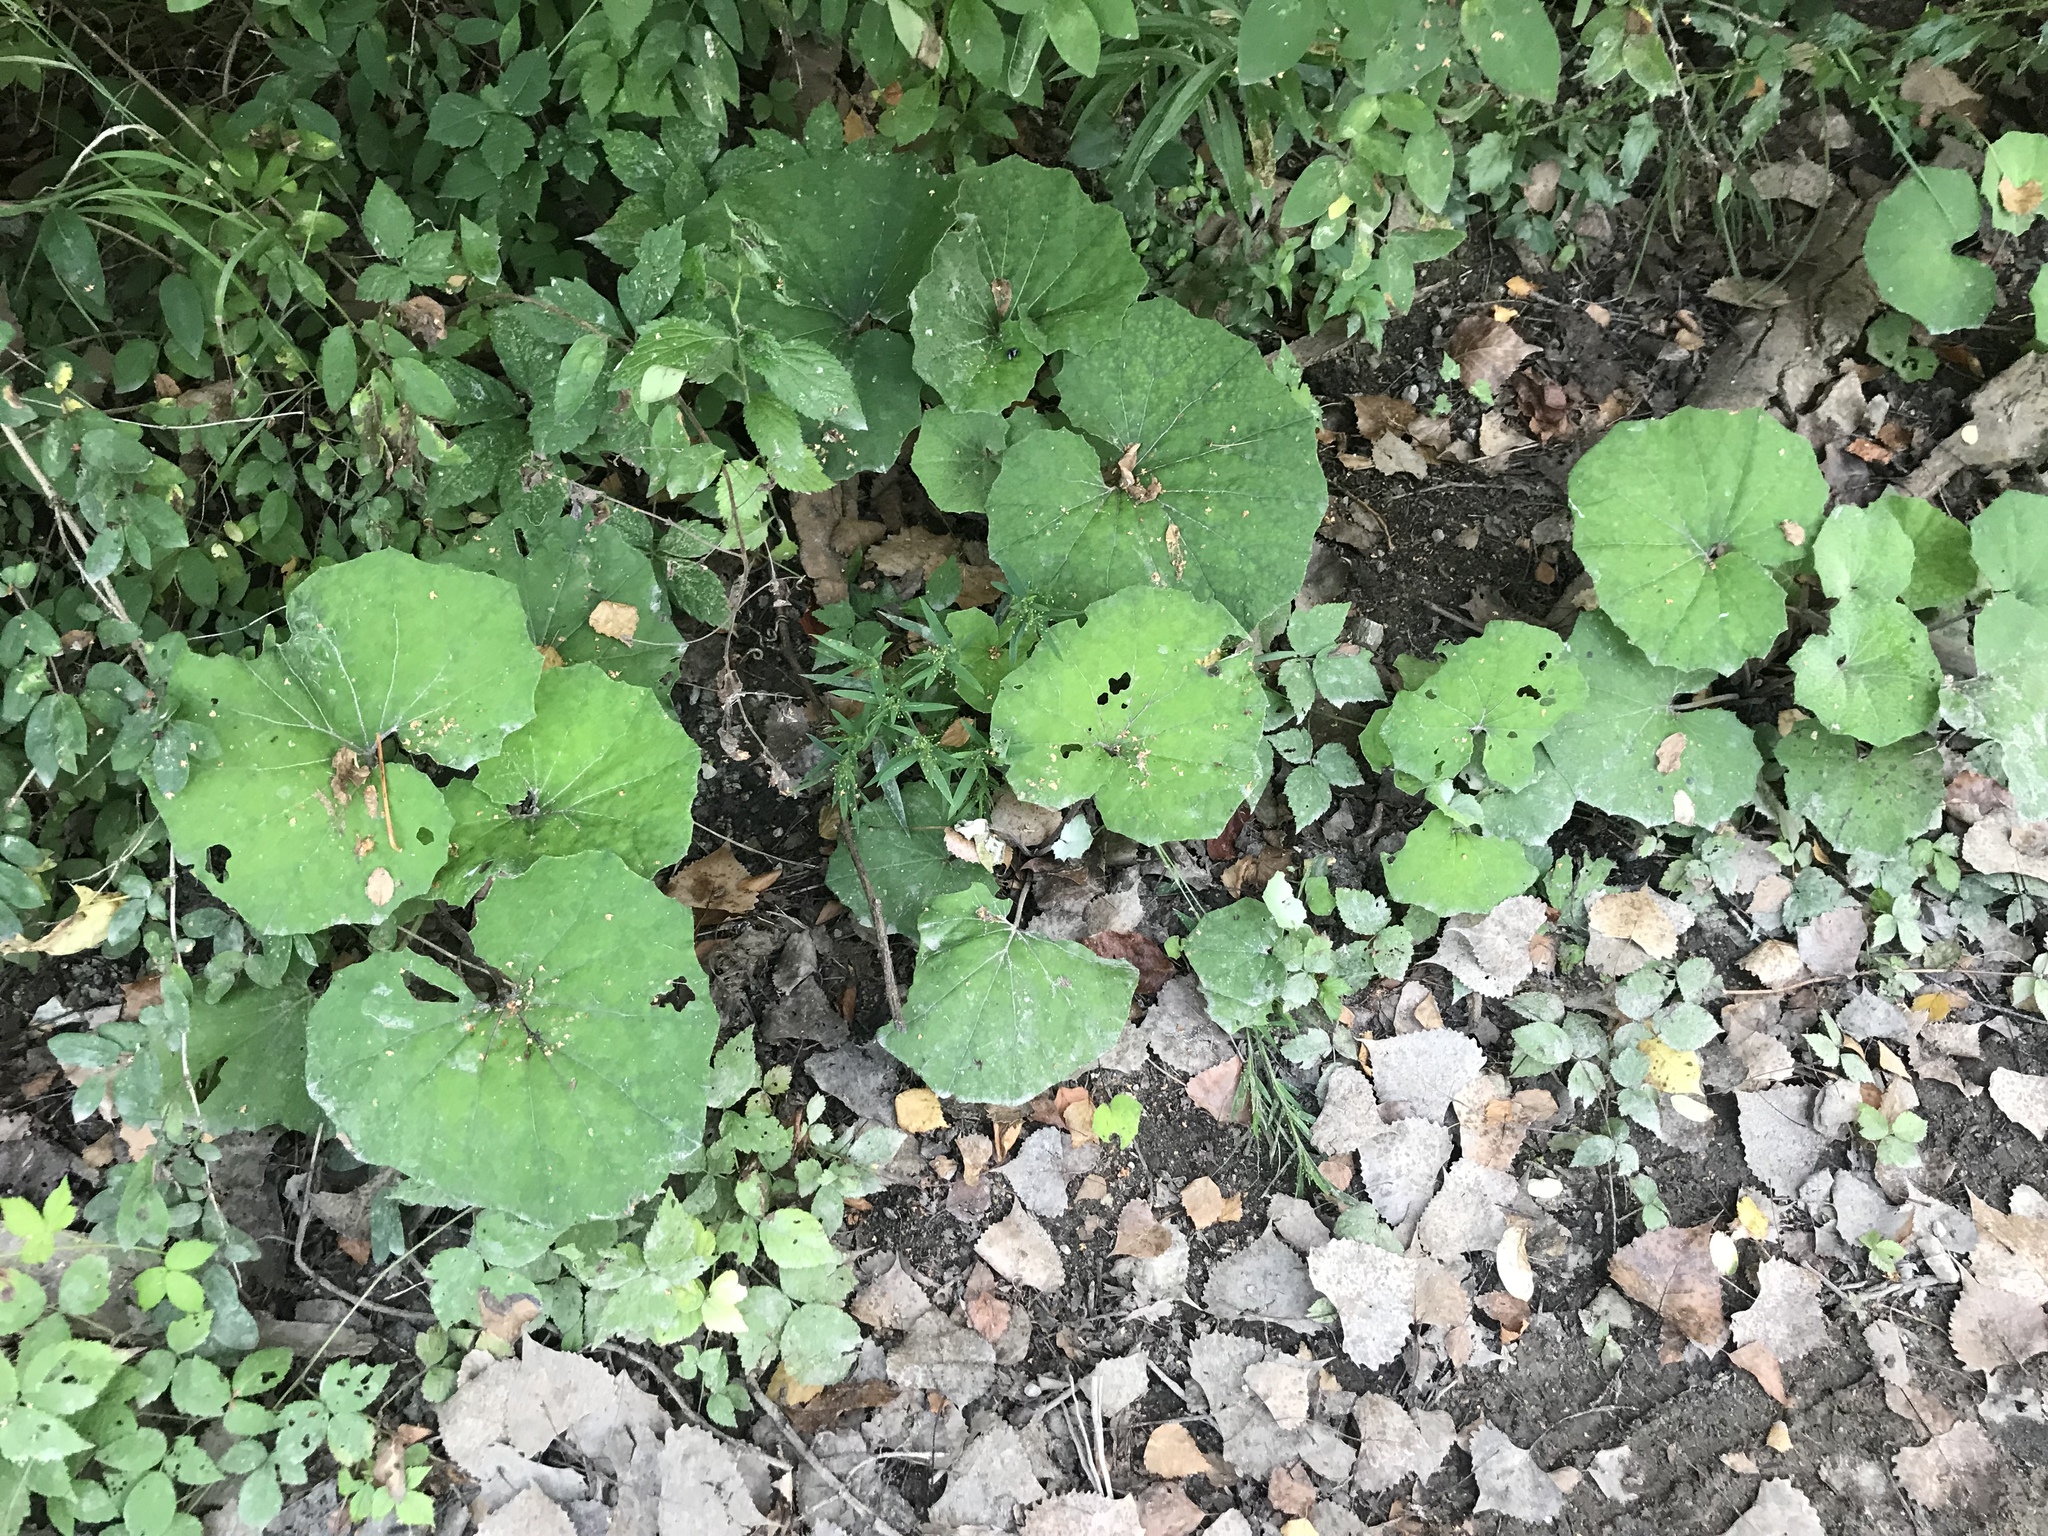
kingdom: Plantae
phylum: Tracheophyta
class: Magnoliopsida
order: Asterales
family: Asteraceae
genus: Tussilago
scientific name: Tussilago farfara
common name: Coltsfoot
